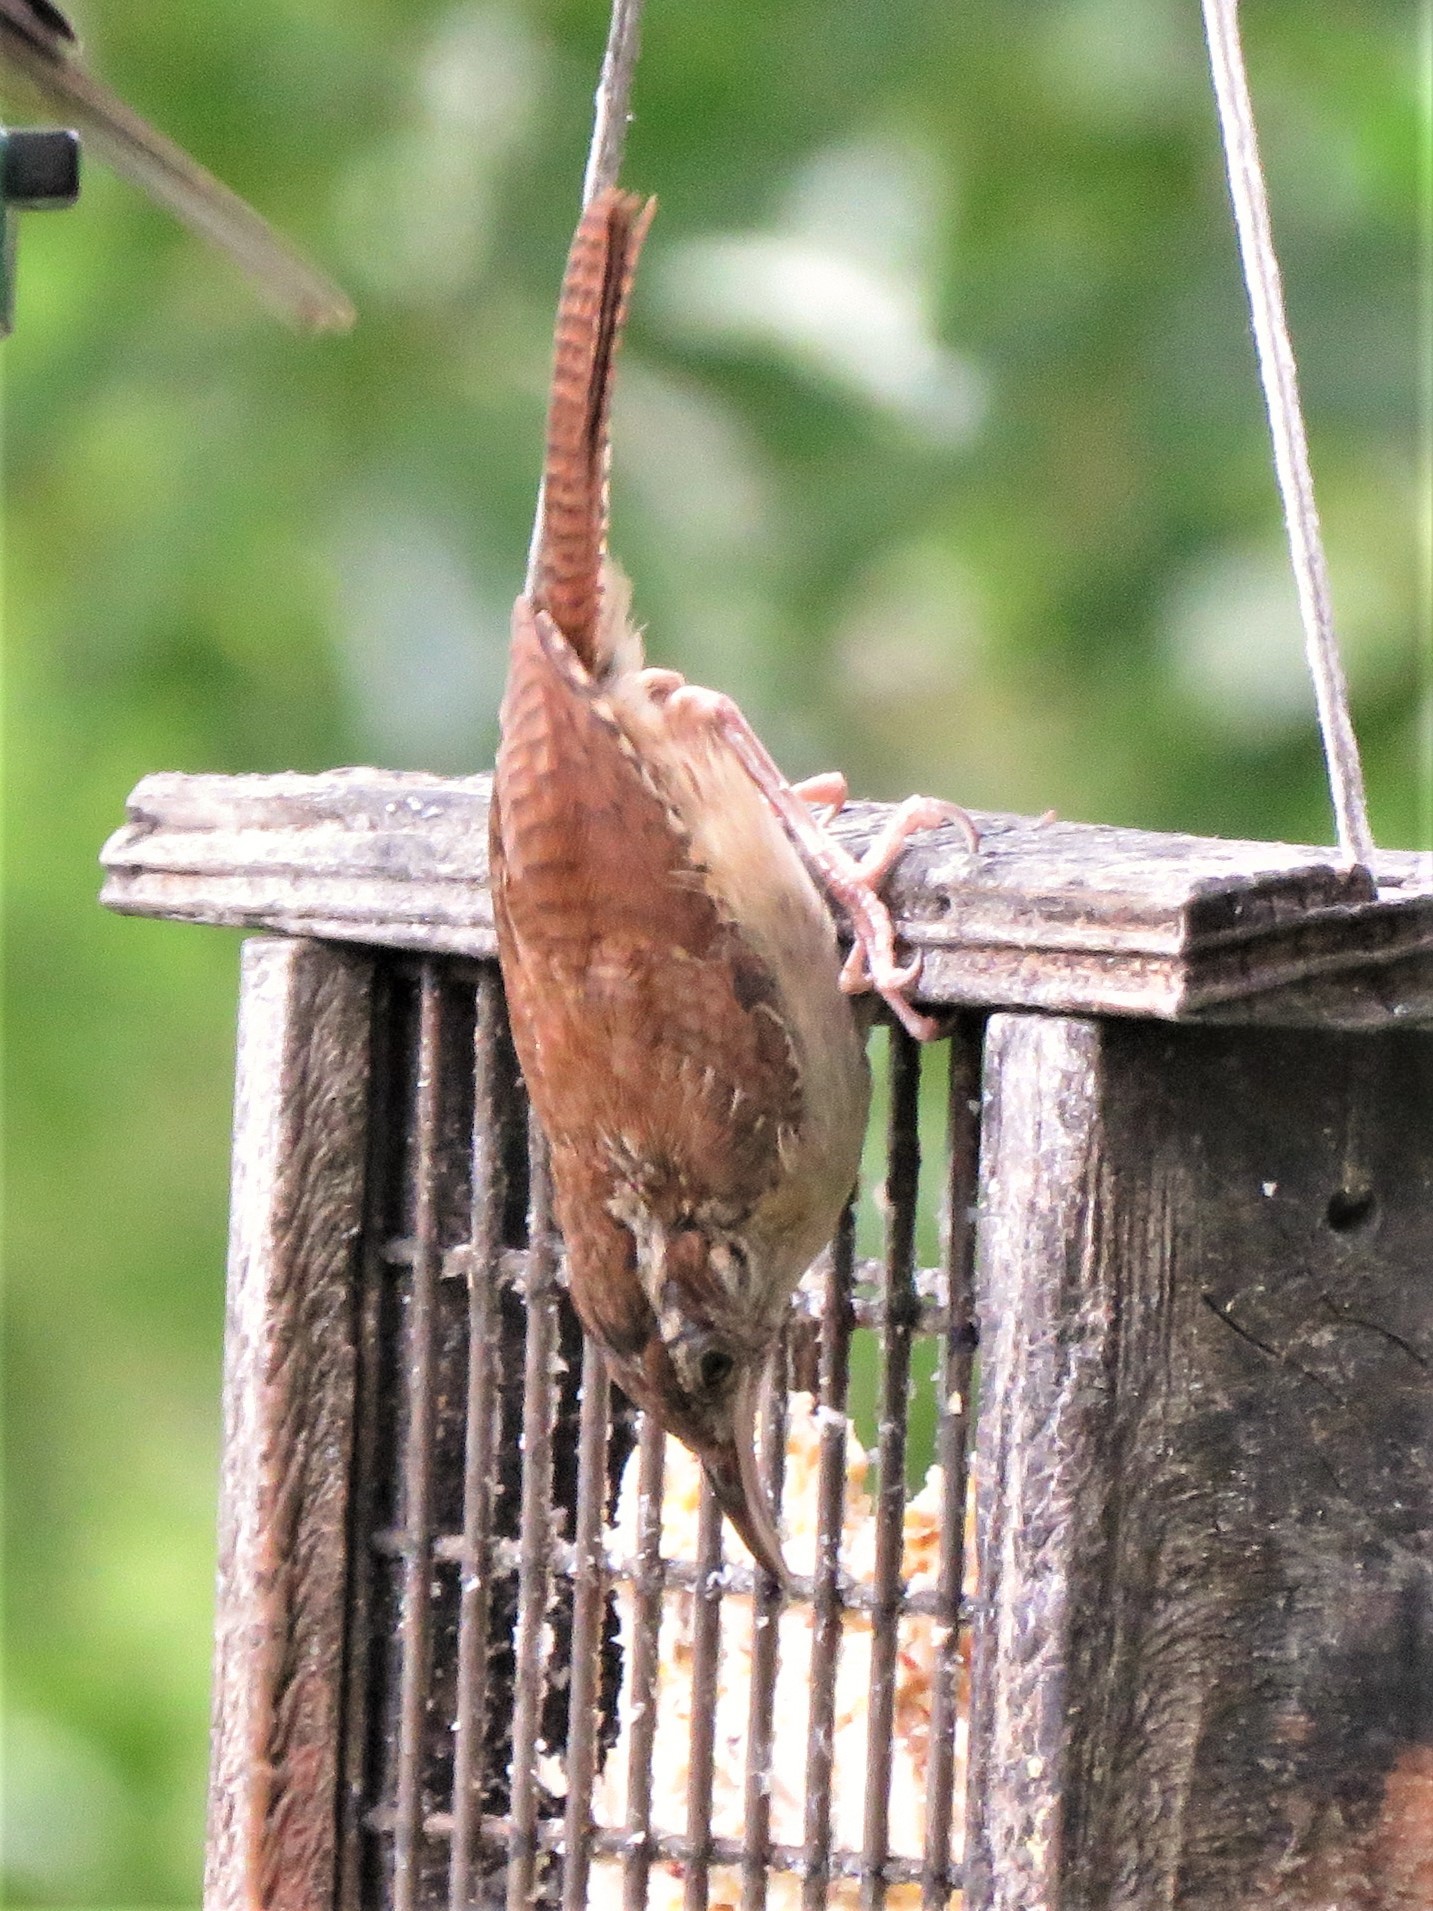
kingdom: Animalia
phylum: Chordata
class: Aves
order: Passeriformes
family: Troglodytidae
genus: Thryothorus
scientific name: Thryothorus ludovicianus
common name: Carolina wren
